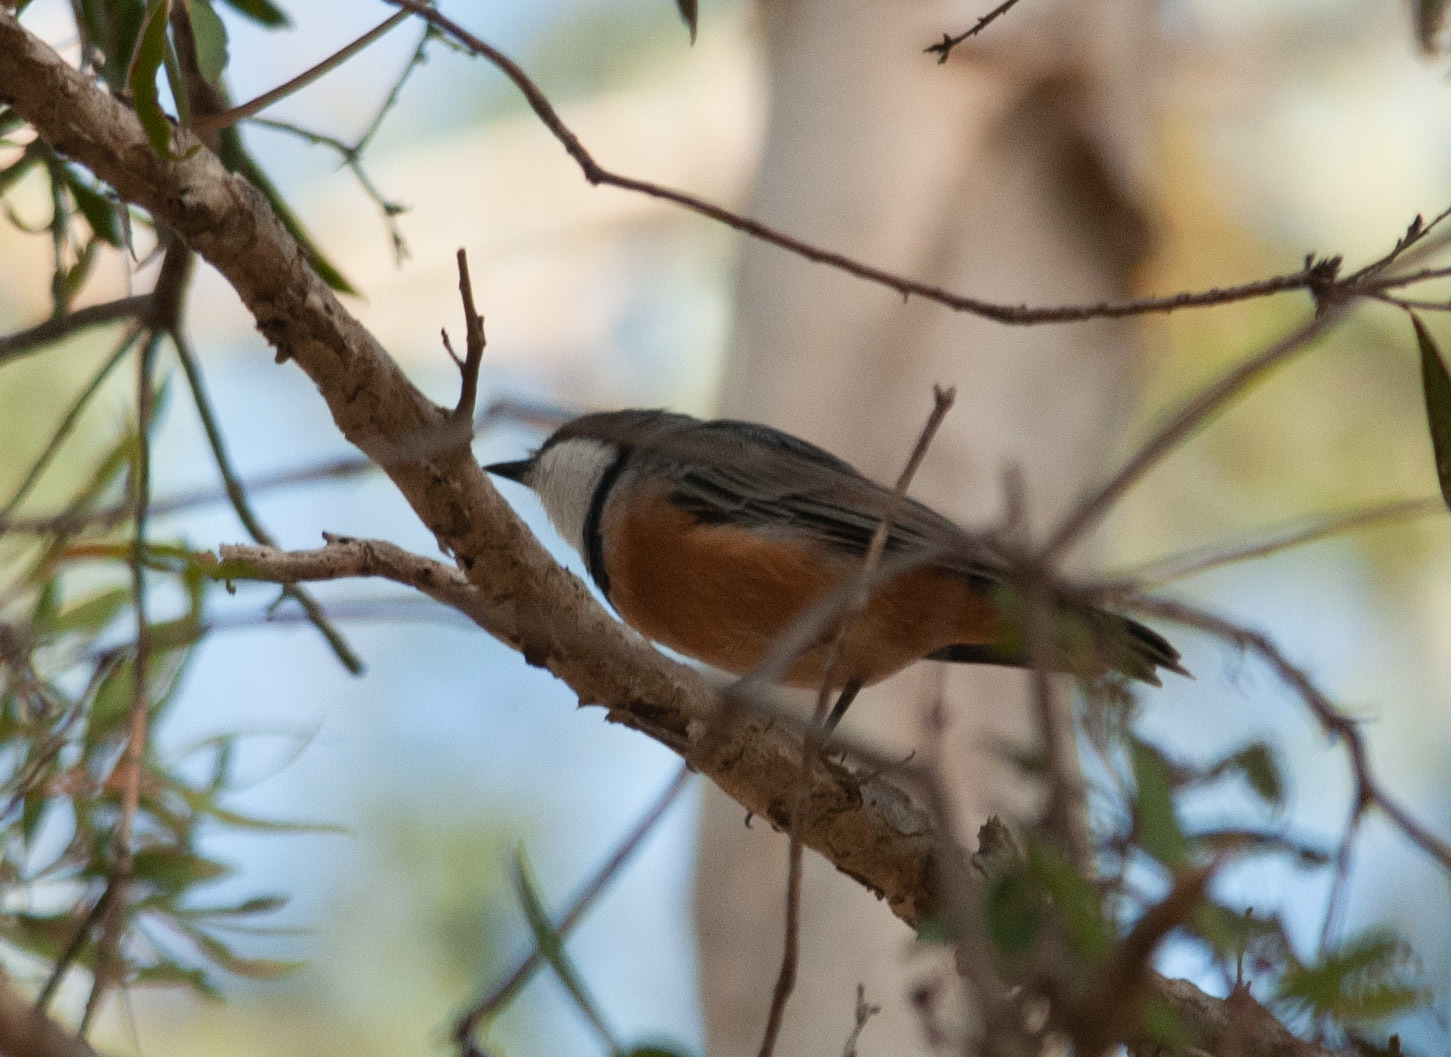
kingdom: Animalia
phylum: Chordata
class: Aves
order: Passeriformes
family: Pachycephalidae
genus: Pachycephala
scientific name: Pachycephala rufiventris
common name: Rufous whistler
